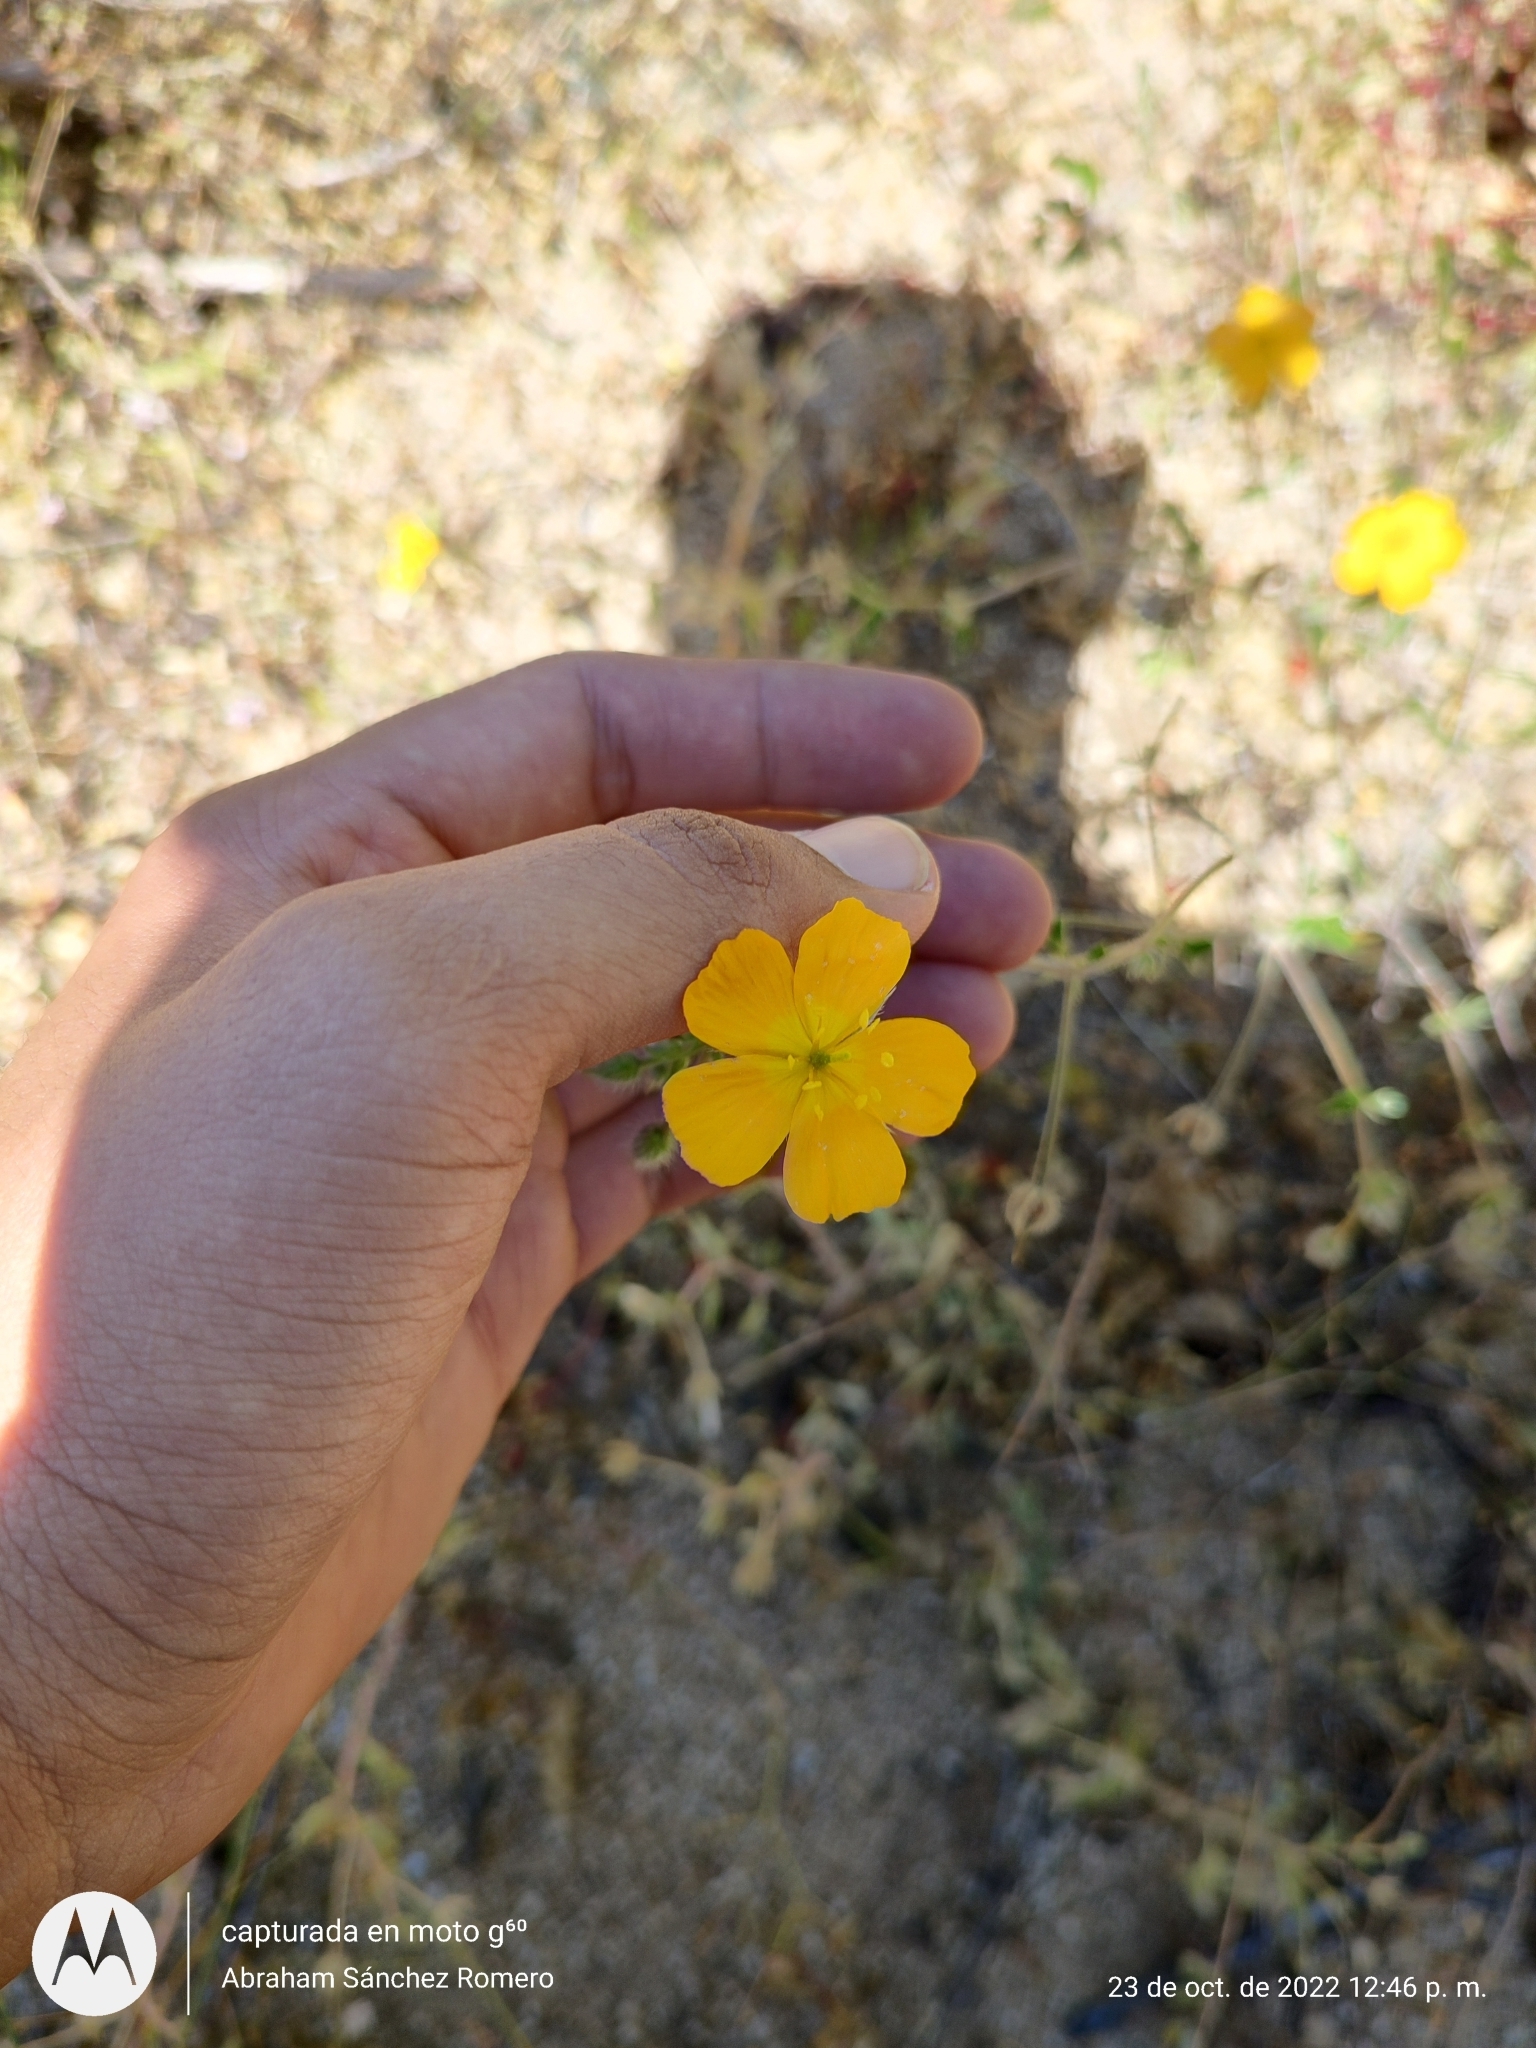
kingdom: Plantae
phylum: Tracheophyta
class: Magnoliopsida
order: Zygophyllales
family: Zygophyllaceae
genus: Kallstroemia
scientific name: Kallstroemia peninsularis
